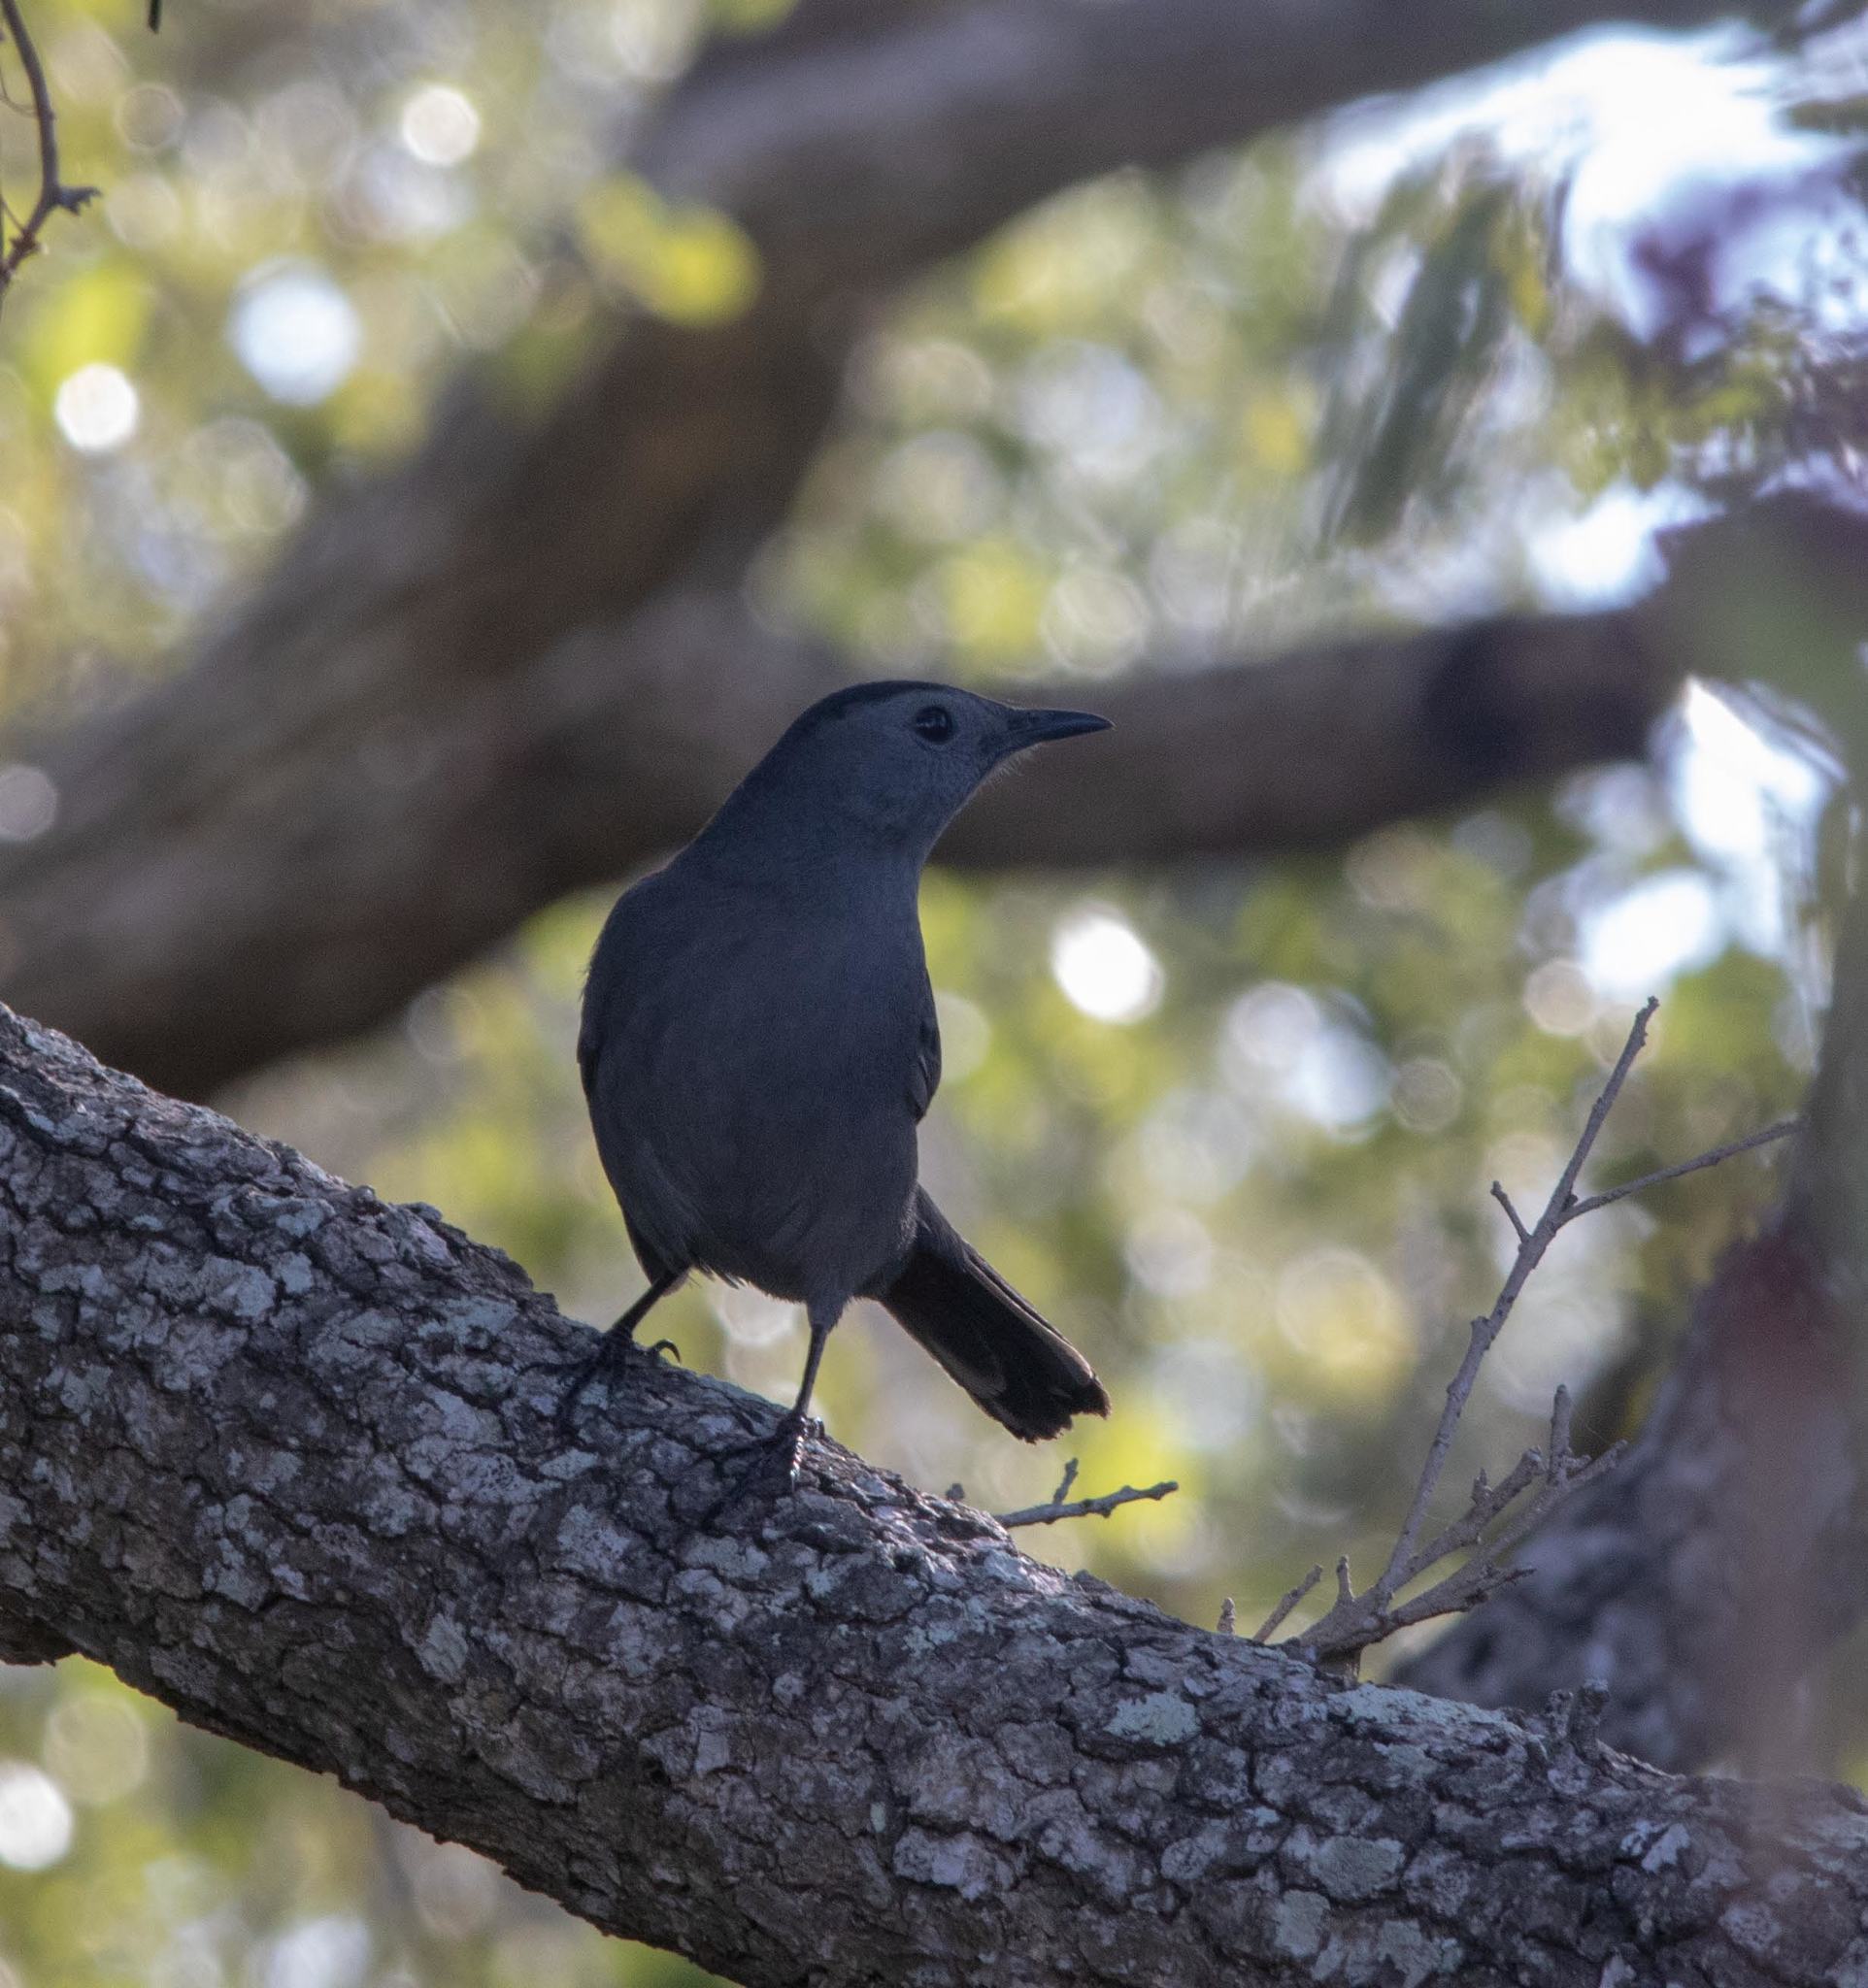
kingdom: Animalia
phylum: Chordata
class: Aves
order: Passeriformes
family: Mimidae
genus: Dumetella
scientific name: Dumetella carolinensis
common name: Gray catbird
